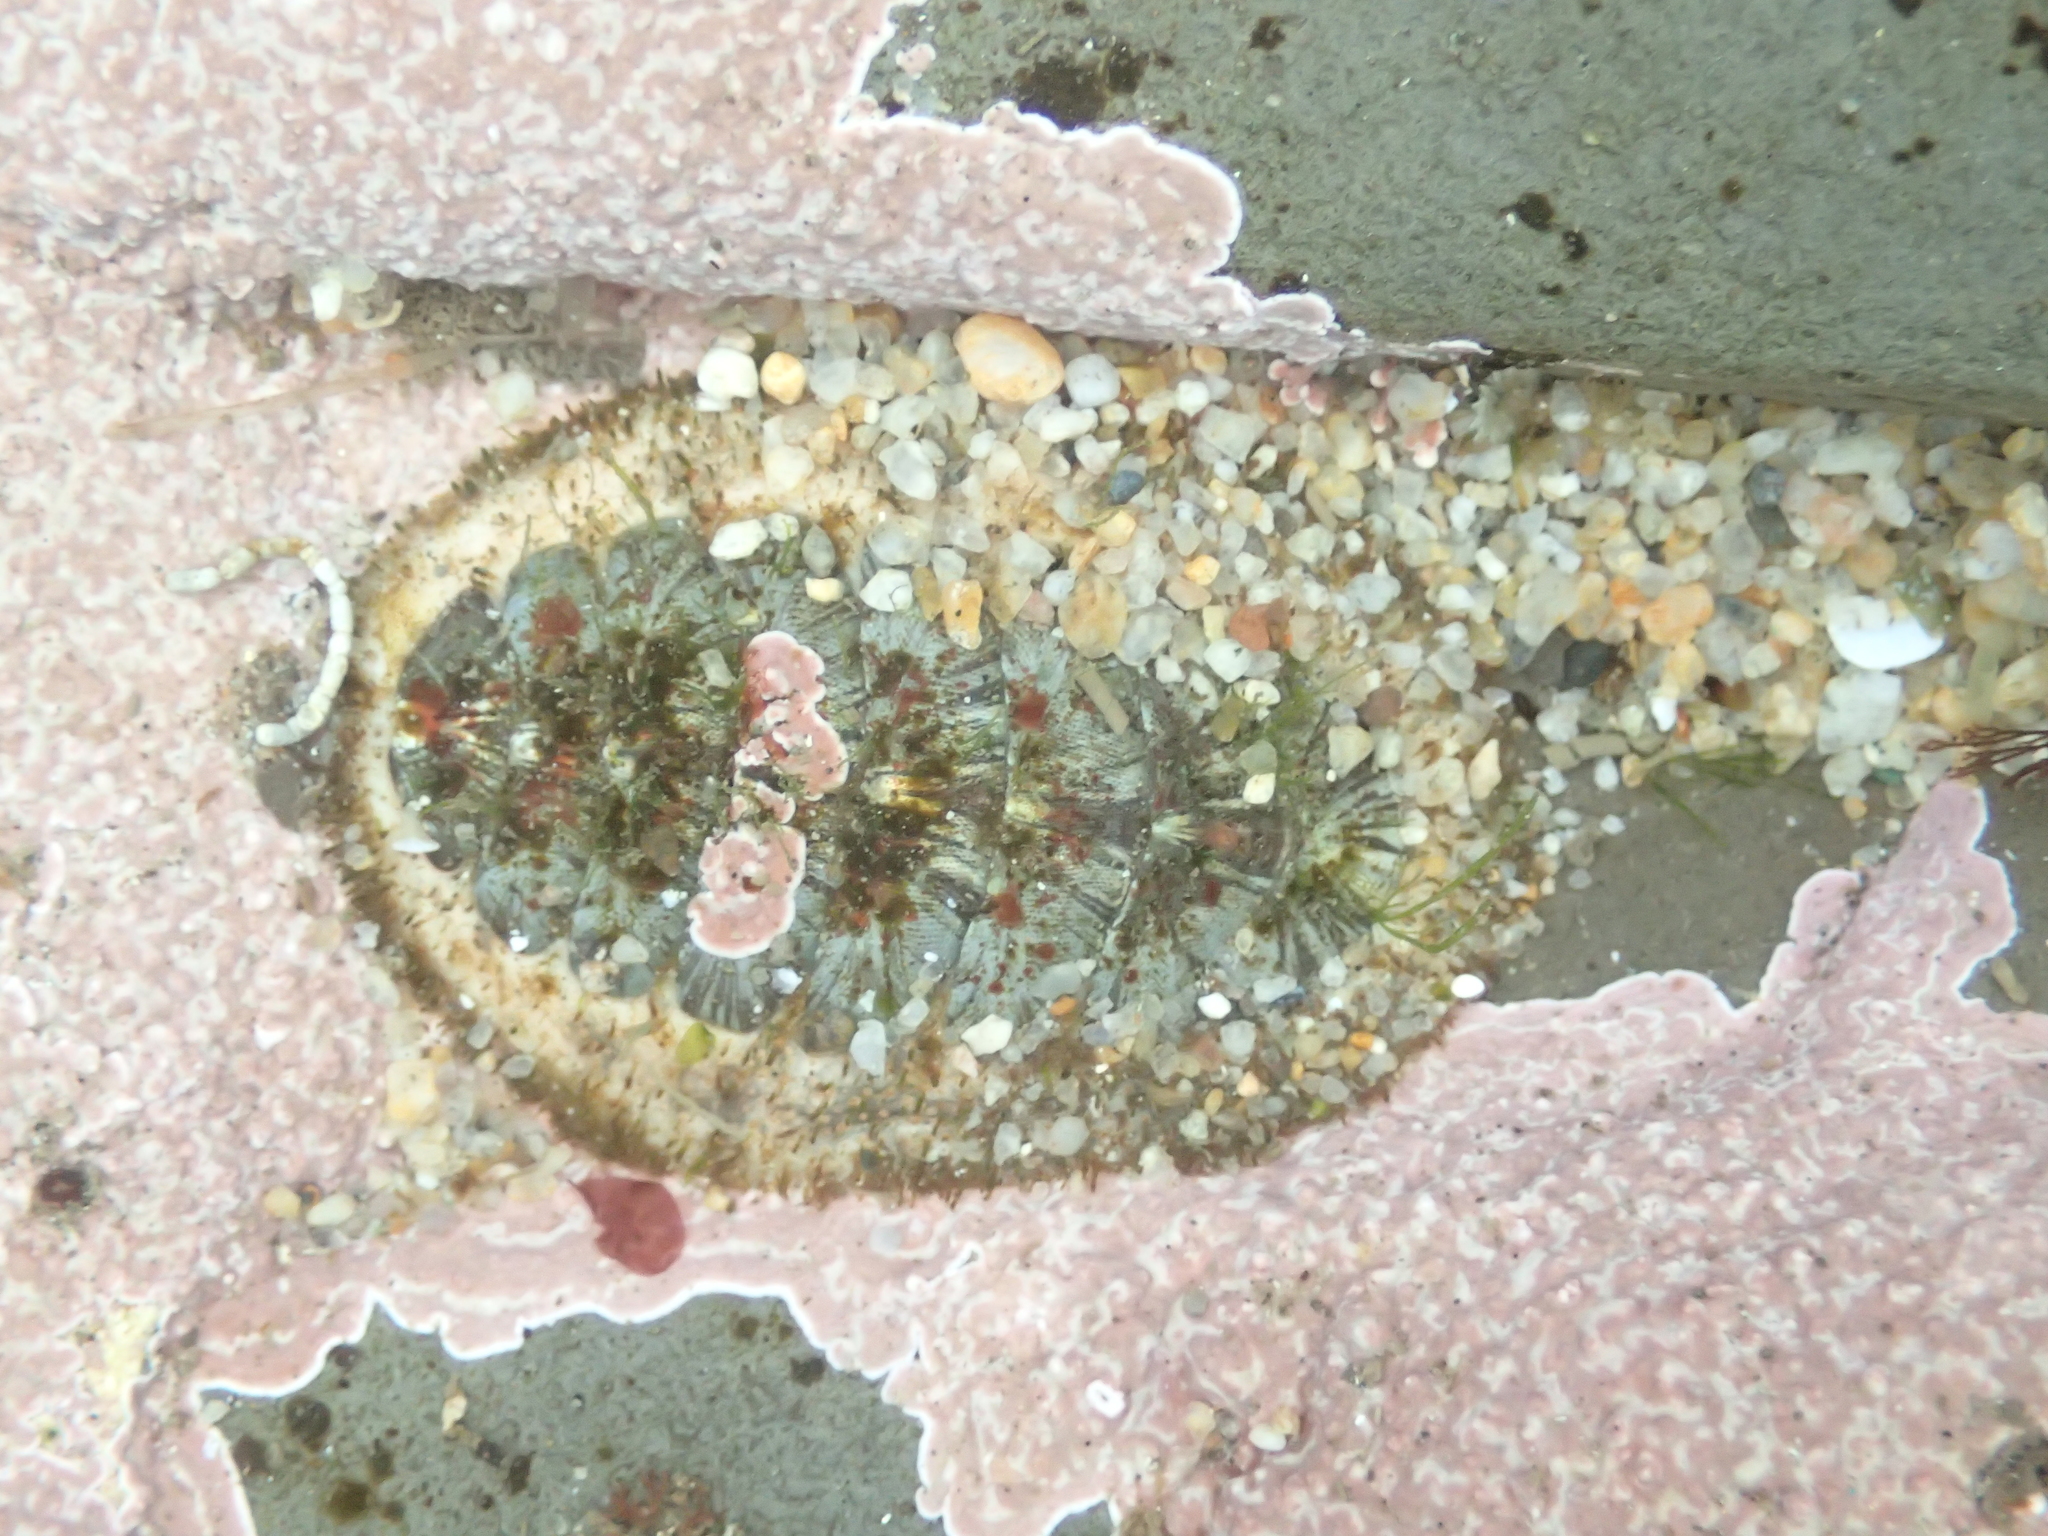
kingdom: Animalia
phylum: Mollusca
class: Polyplacophora
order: Chitonida
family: Mopaliidae
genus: Mopalia
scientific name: Mopalia lignosa
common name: Woody chiton
